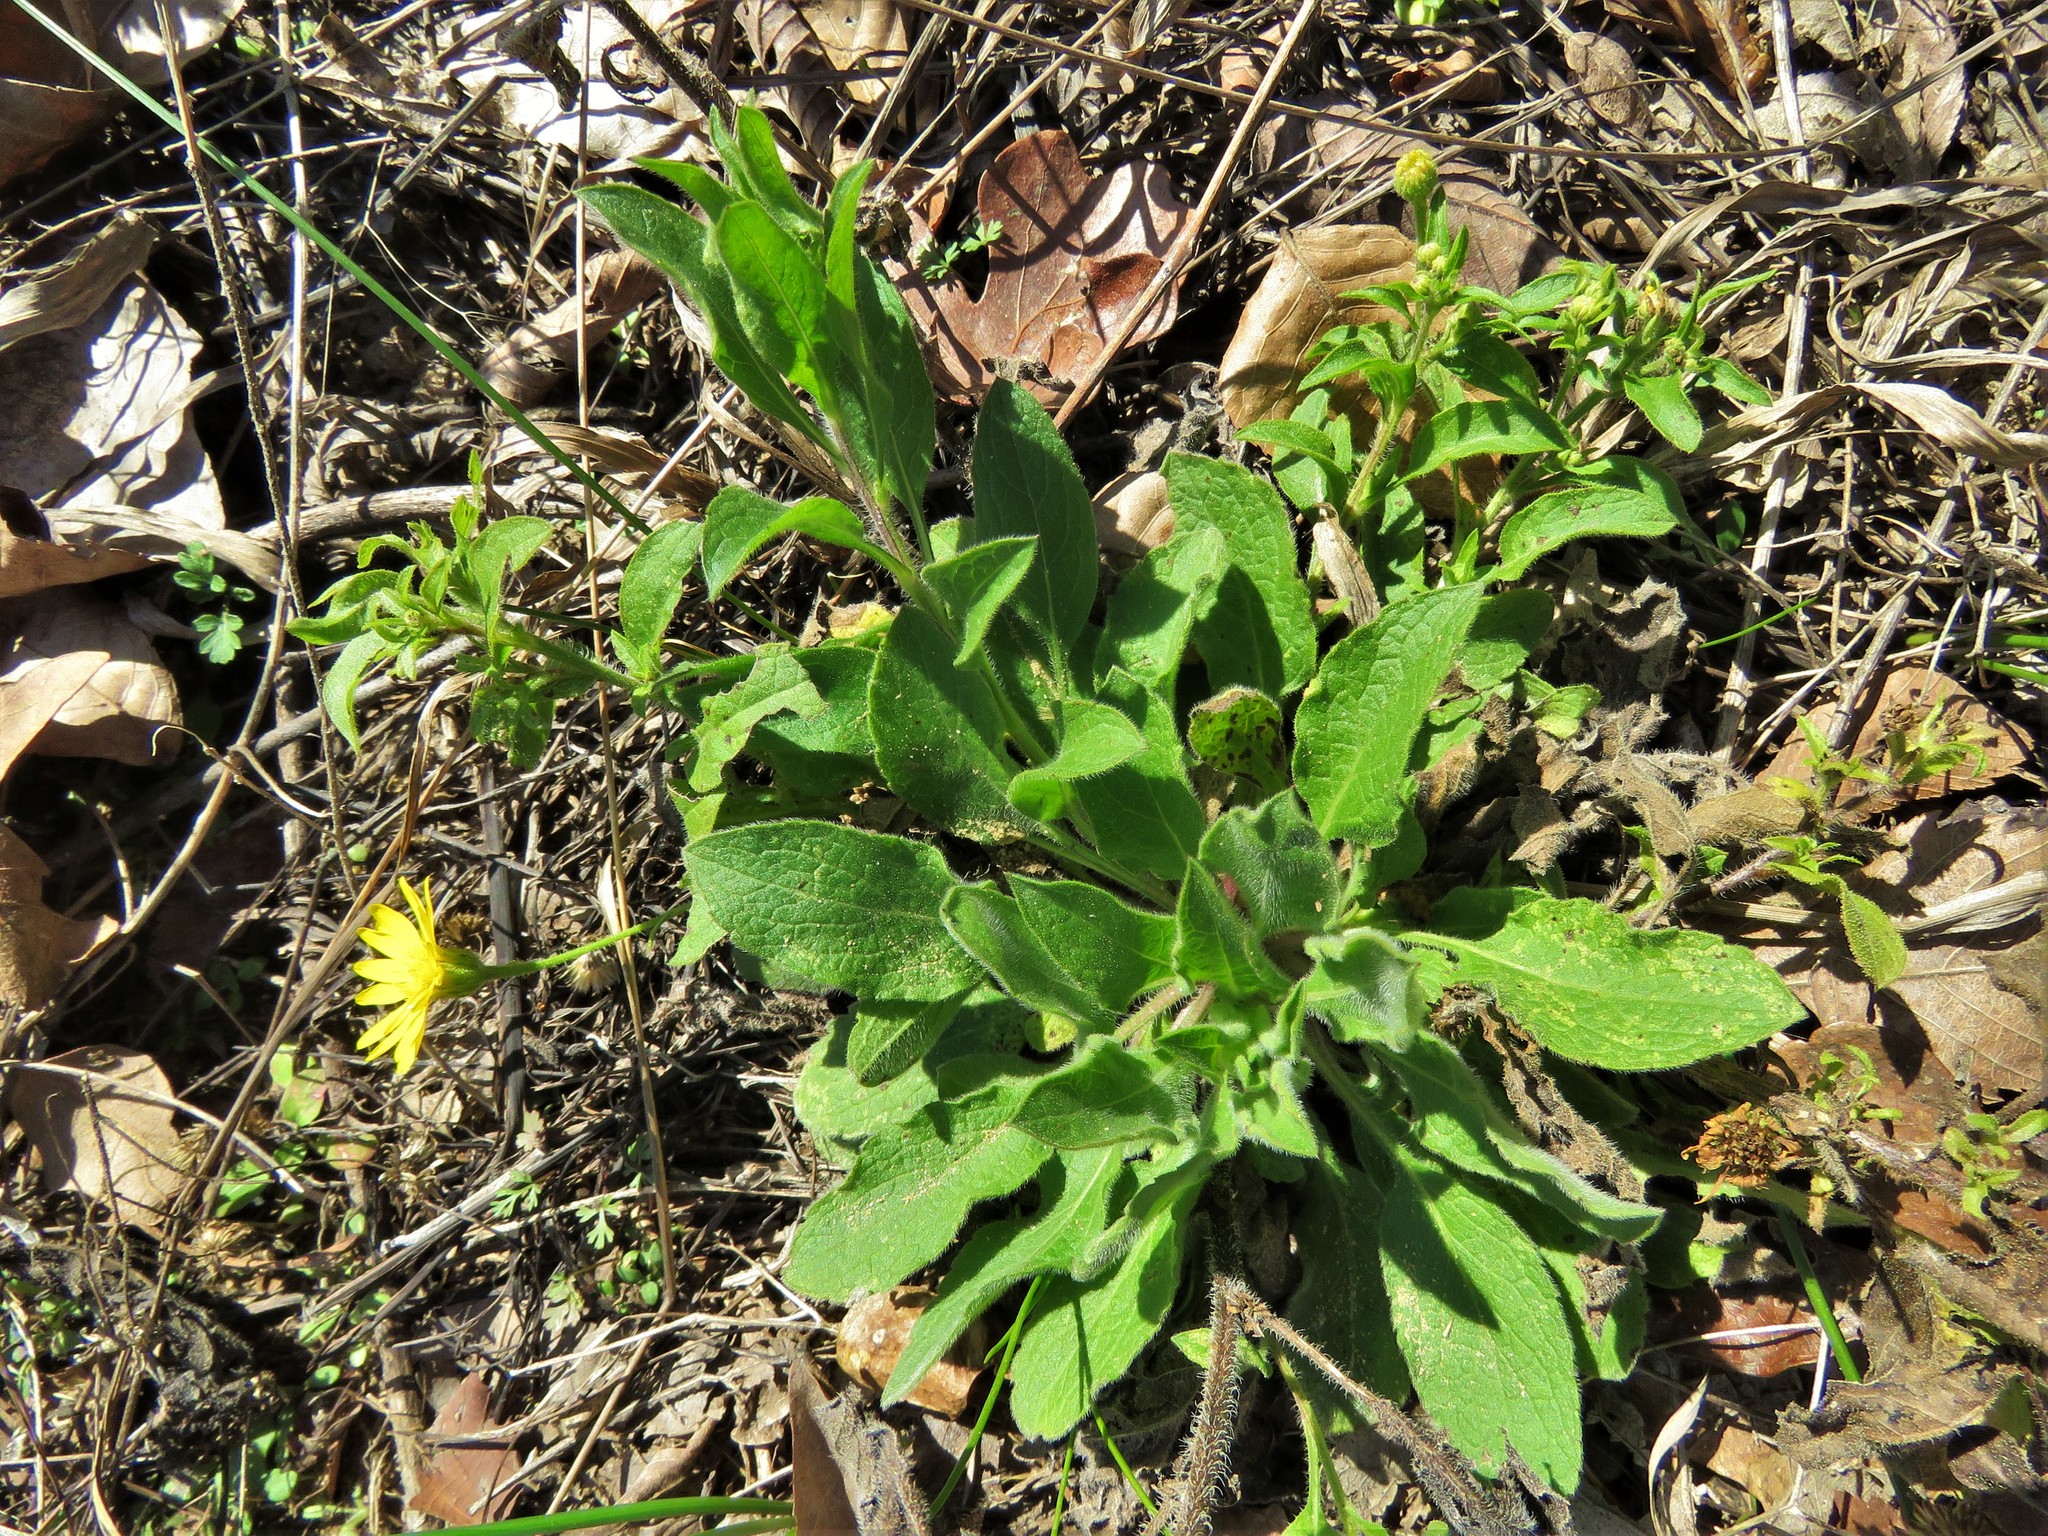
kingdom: Plantae
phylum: Tracheophyta
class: Magnoliopsida
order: Asterales
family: Asteraceae
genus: Heterotheca
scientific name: Heterotheca subaxillaris
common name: Camphorweed
